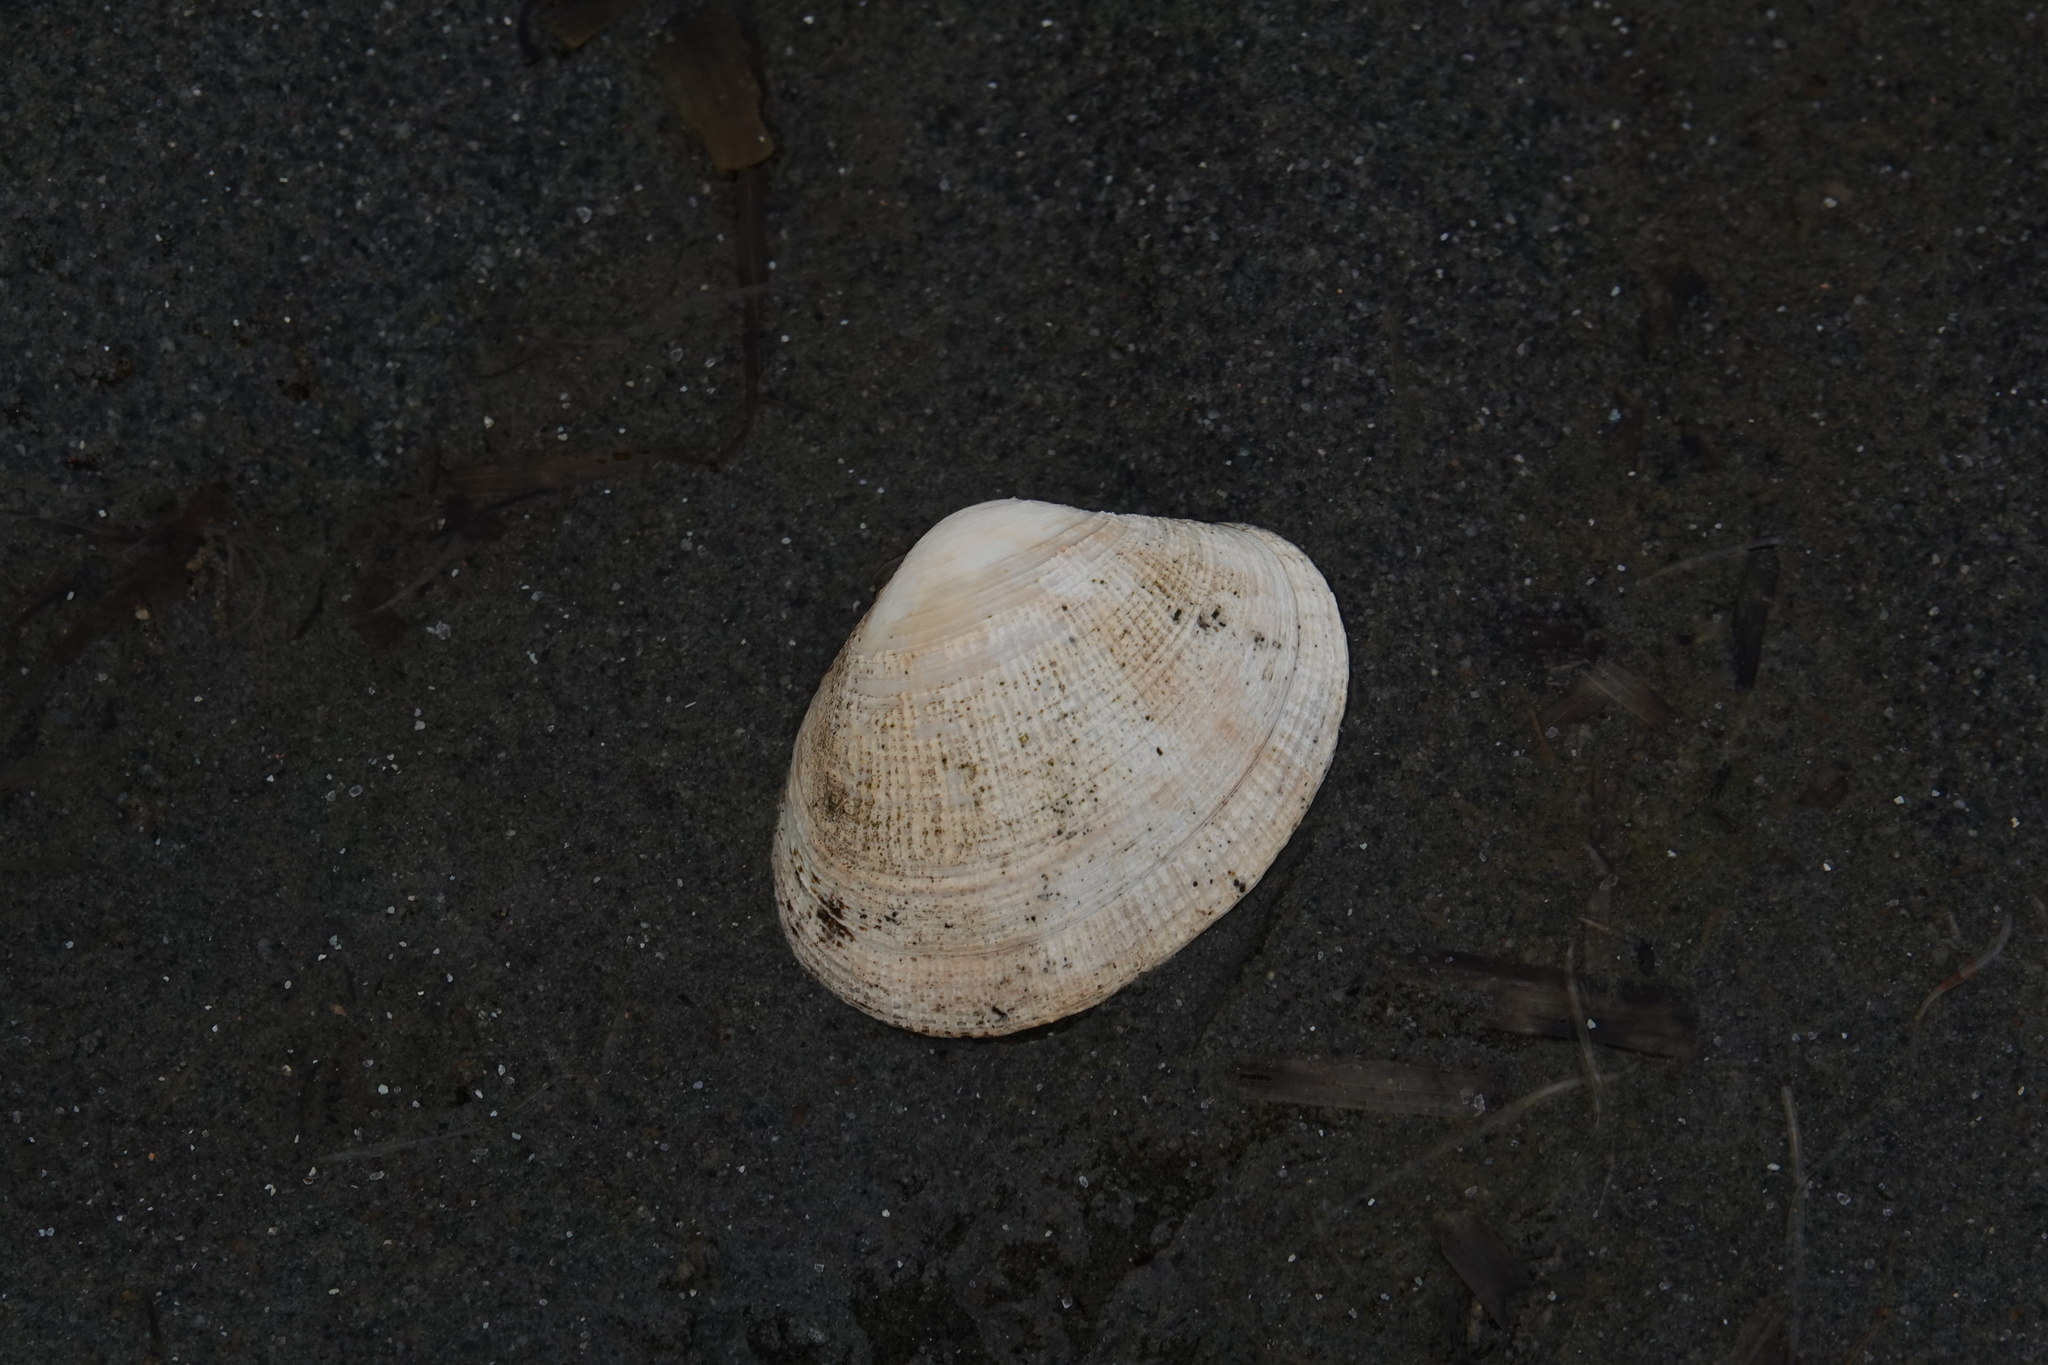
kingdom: Animalia
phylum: Mollusca
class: Bivalvia
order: Venerida
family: Veneridae
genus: Ruditapes
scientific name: Ruditapes philippinarum
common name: Manila clam
